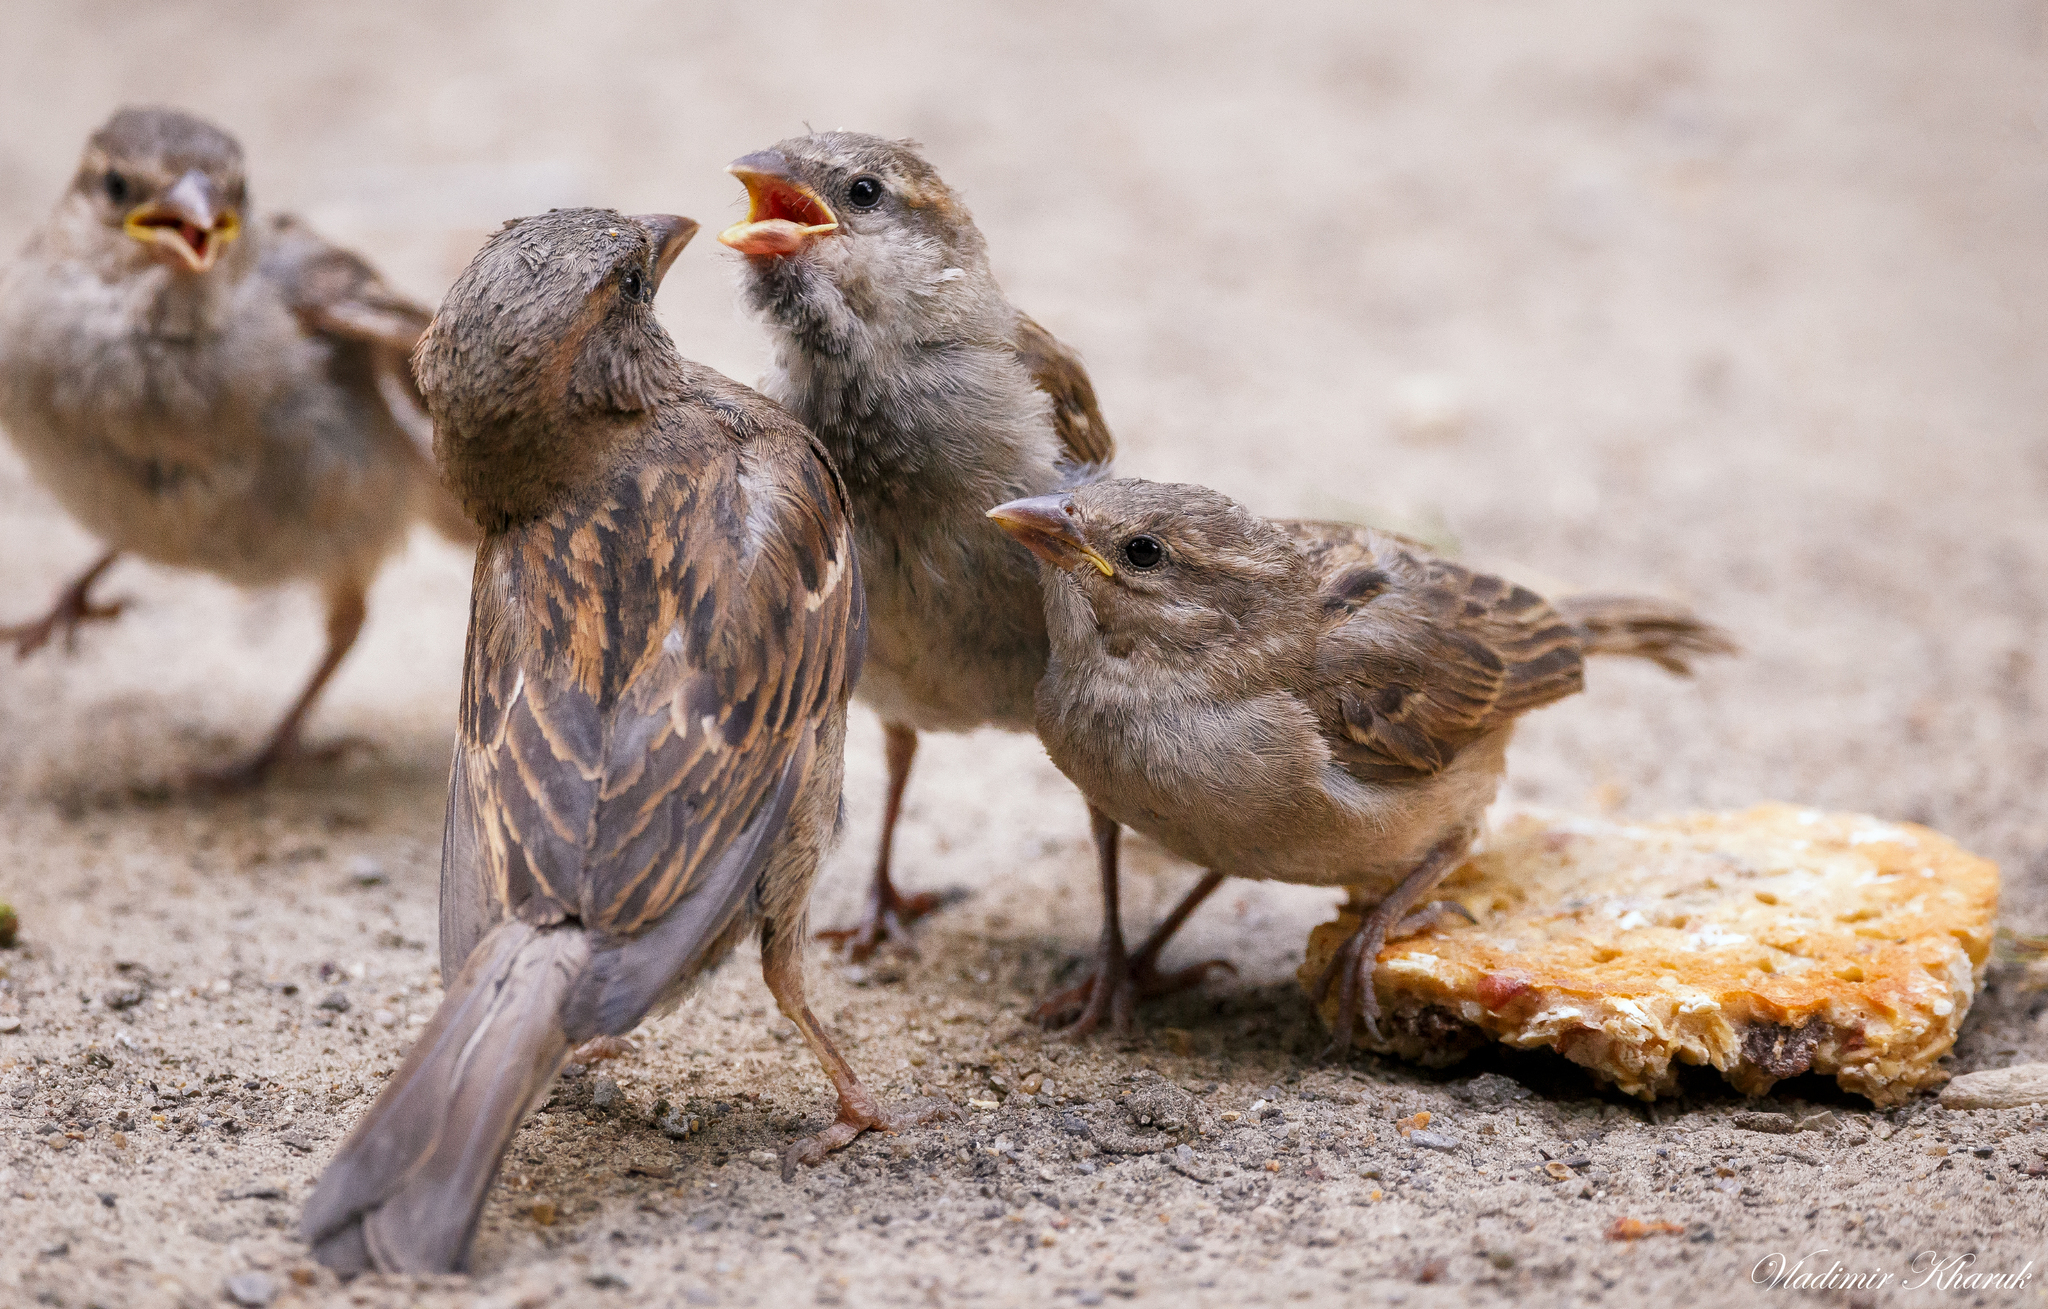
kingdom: Animalia
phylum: Chordata
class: Aves
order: Passeriformes
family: Passeridae
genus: Passer
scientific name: Passer domesticus
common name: House sparrow
